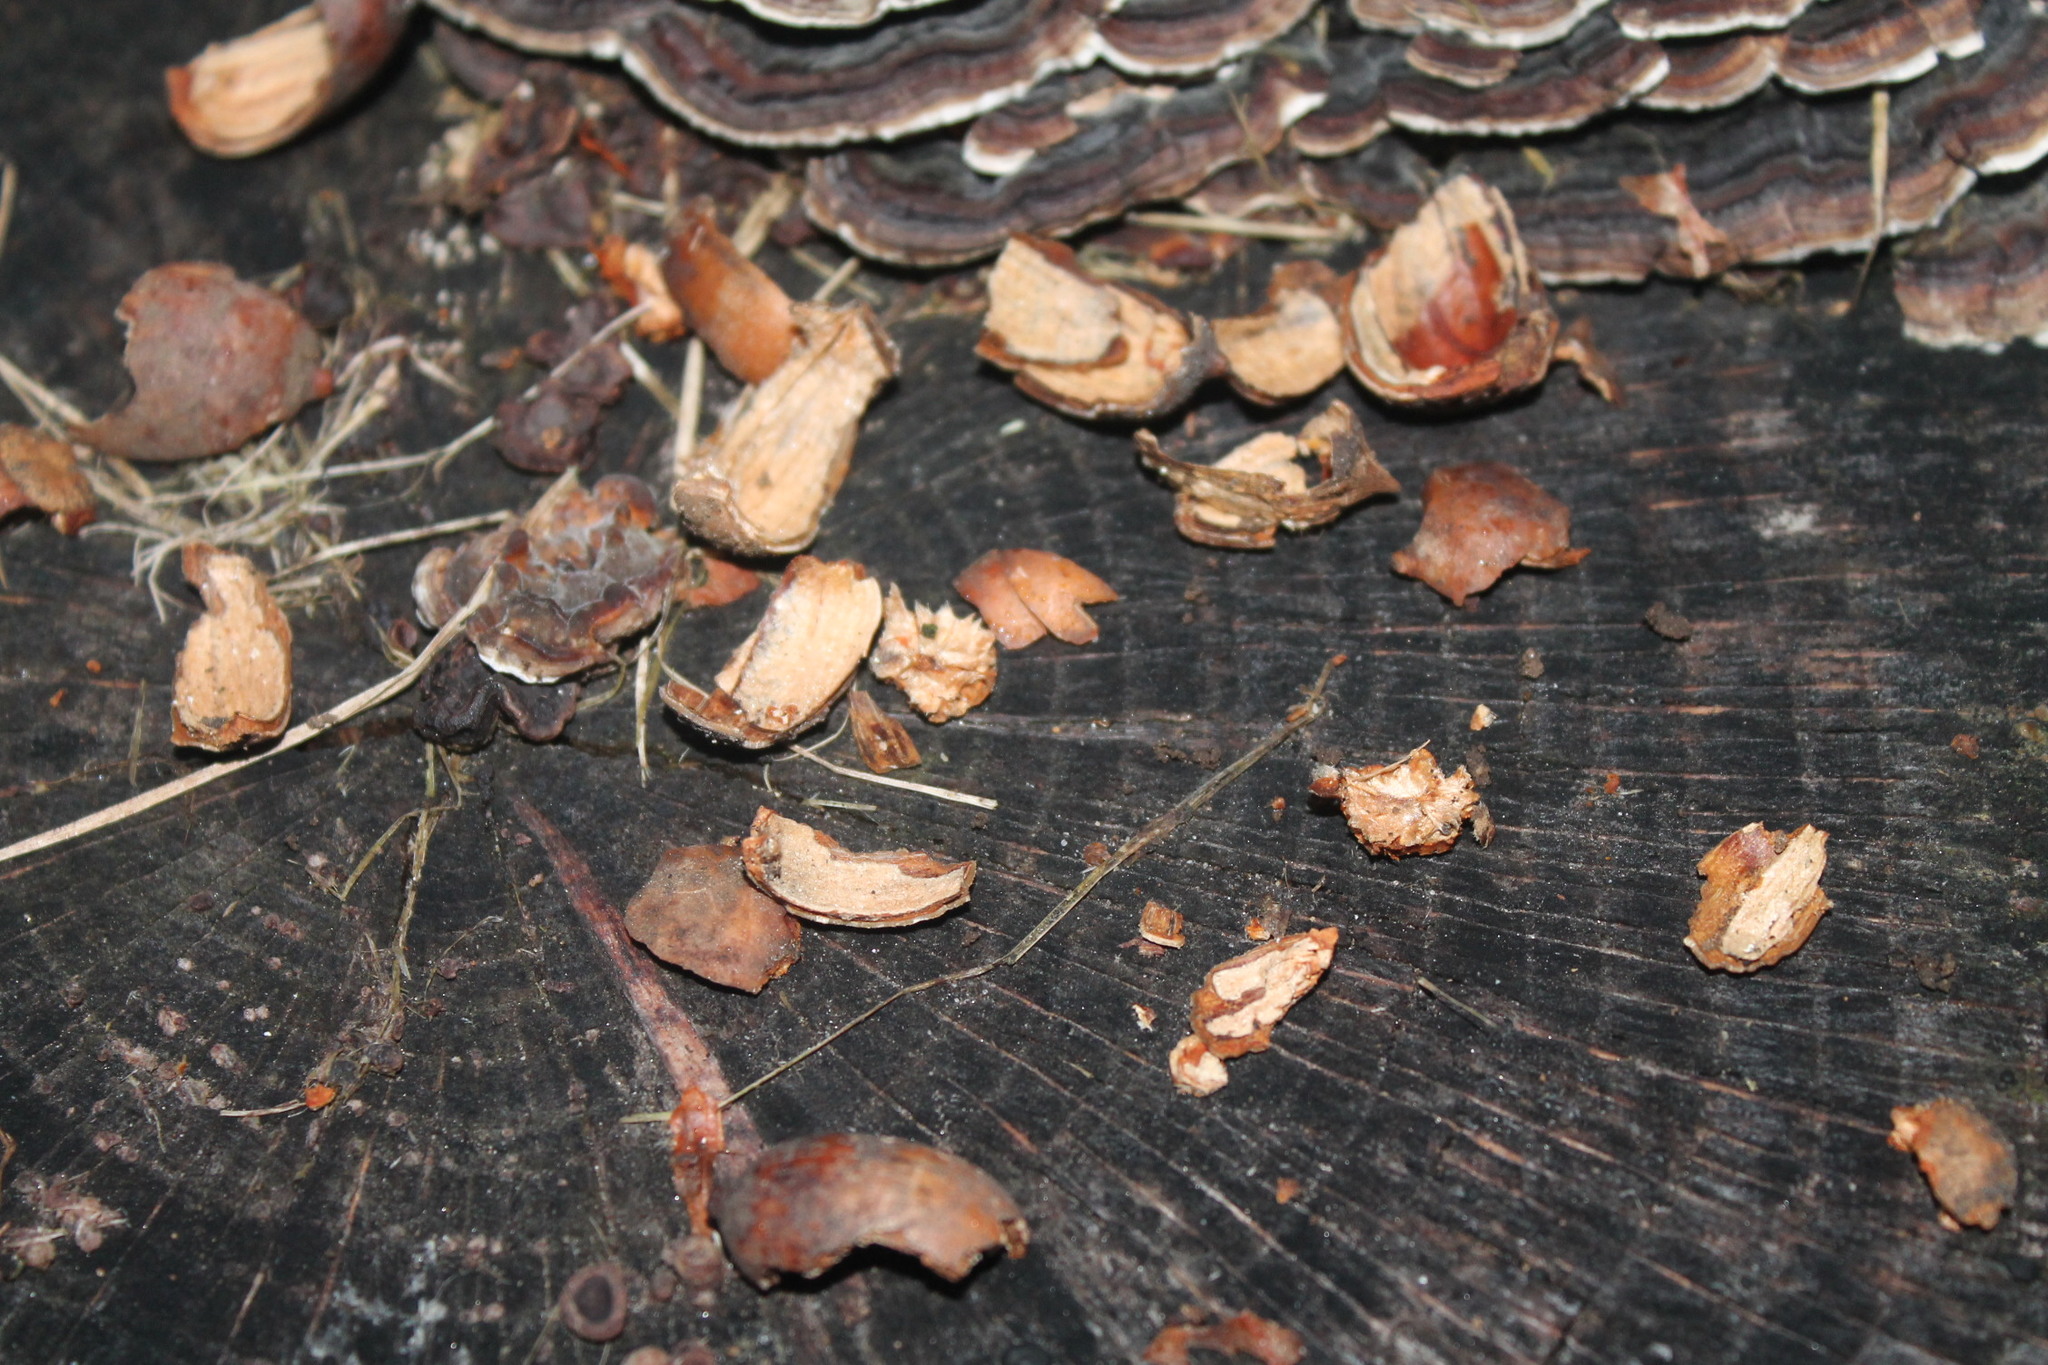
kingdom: Animalia
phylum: Chordata
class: Mammalia
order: Rodentia
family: Sciuridae
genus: Sciurus
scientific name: Sciurus carolinensis
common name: Eastern gray squirrel
